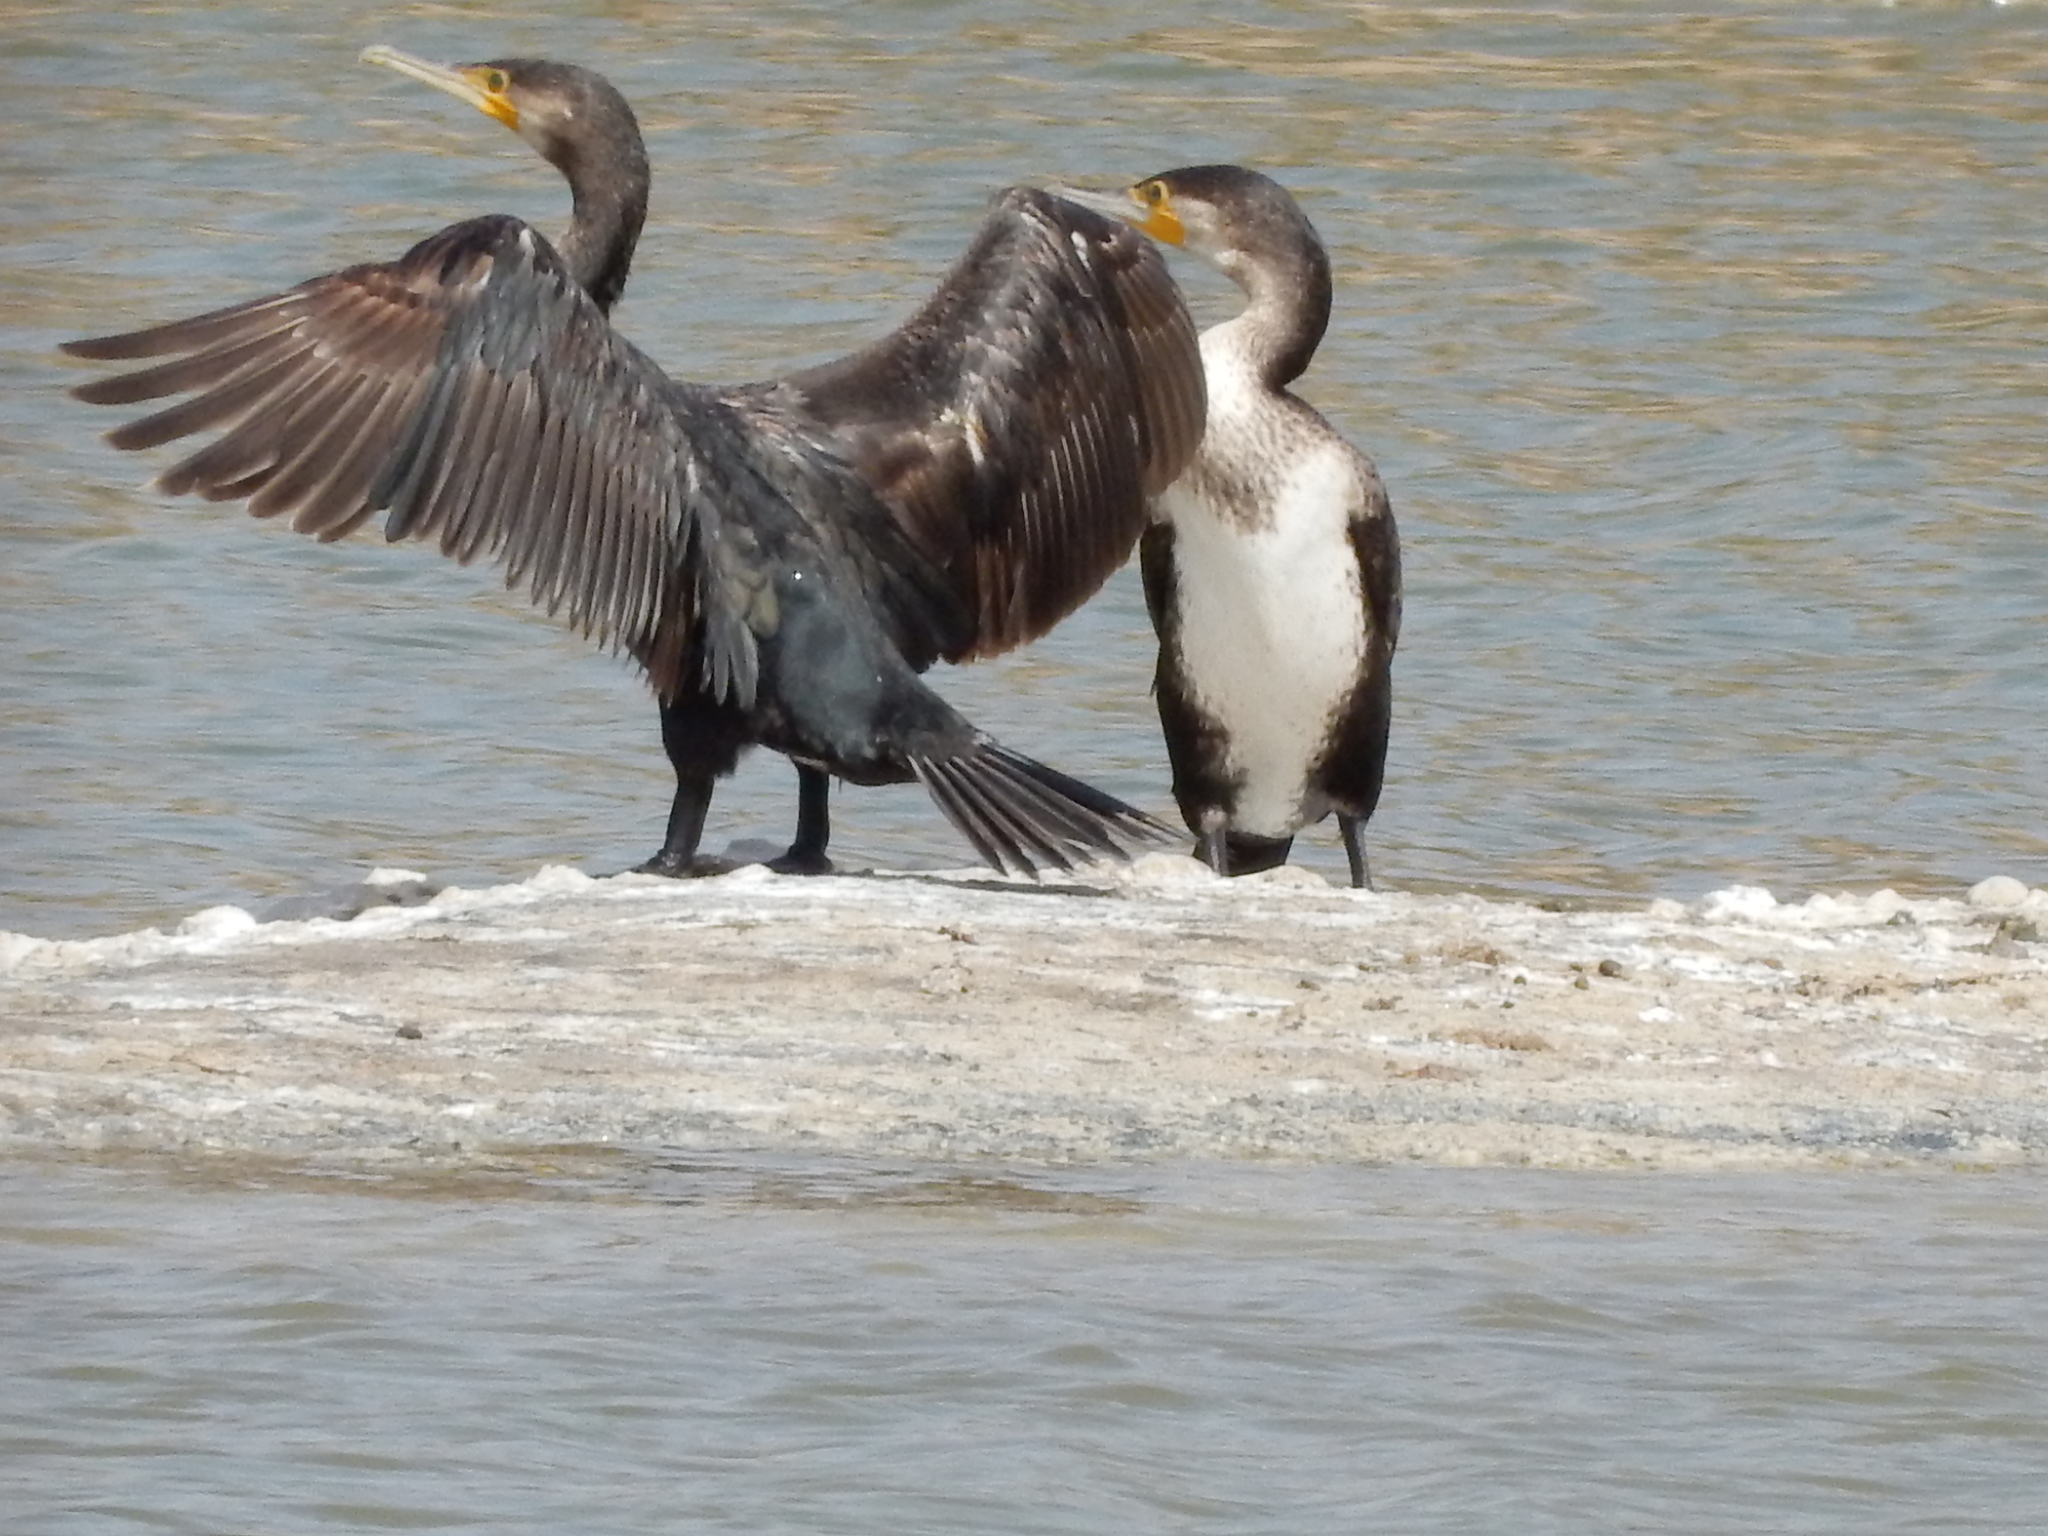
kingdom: Animalia
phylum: Chordata
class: Aves
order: Suliformes
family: Phalacrocoracidae
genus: Phalacrocorax
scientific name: Phalacrocorax carbo
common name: Great cormorant
